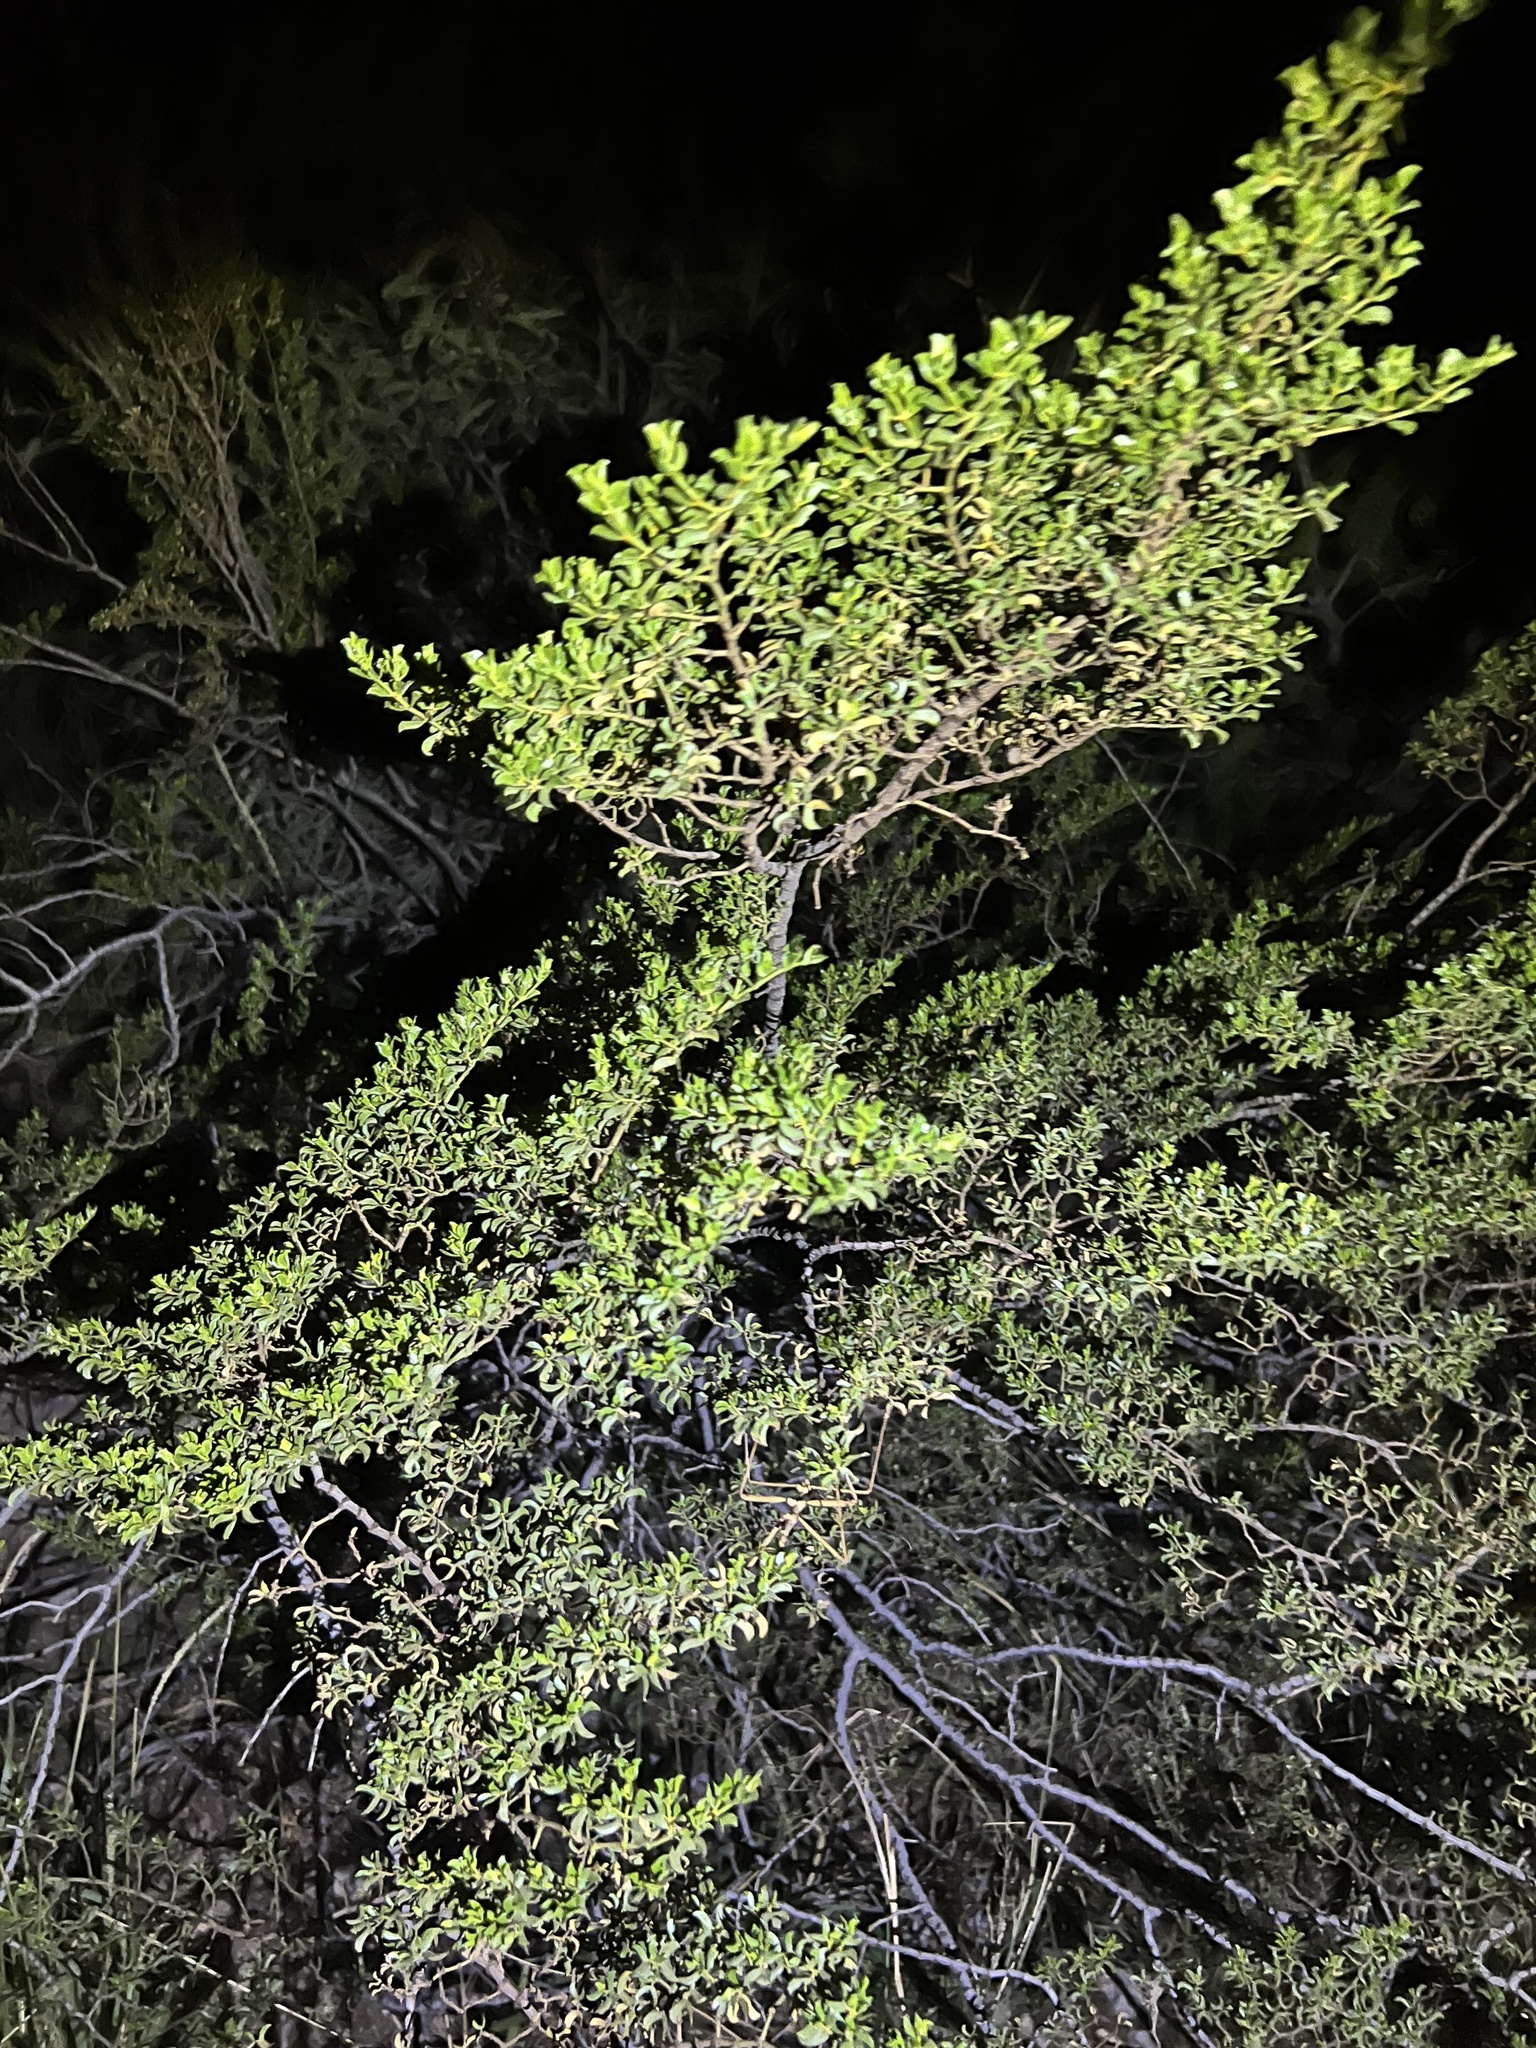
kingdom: Plantae
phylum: Tracheophyta
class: Magnoliopsida
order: Zygophyllales
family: Zygophyllaceae
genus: Larrea
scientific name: Larrea tridentata
